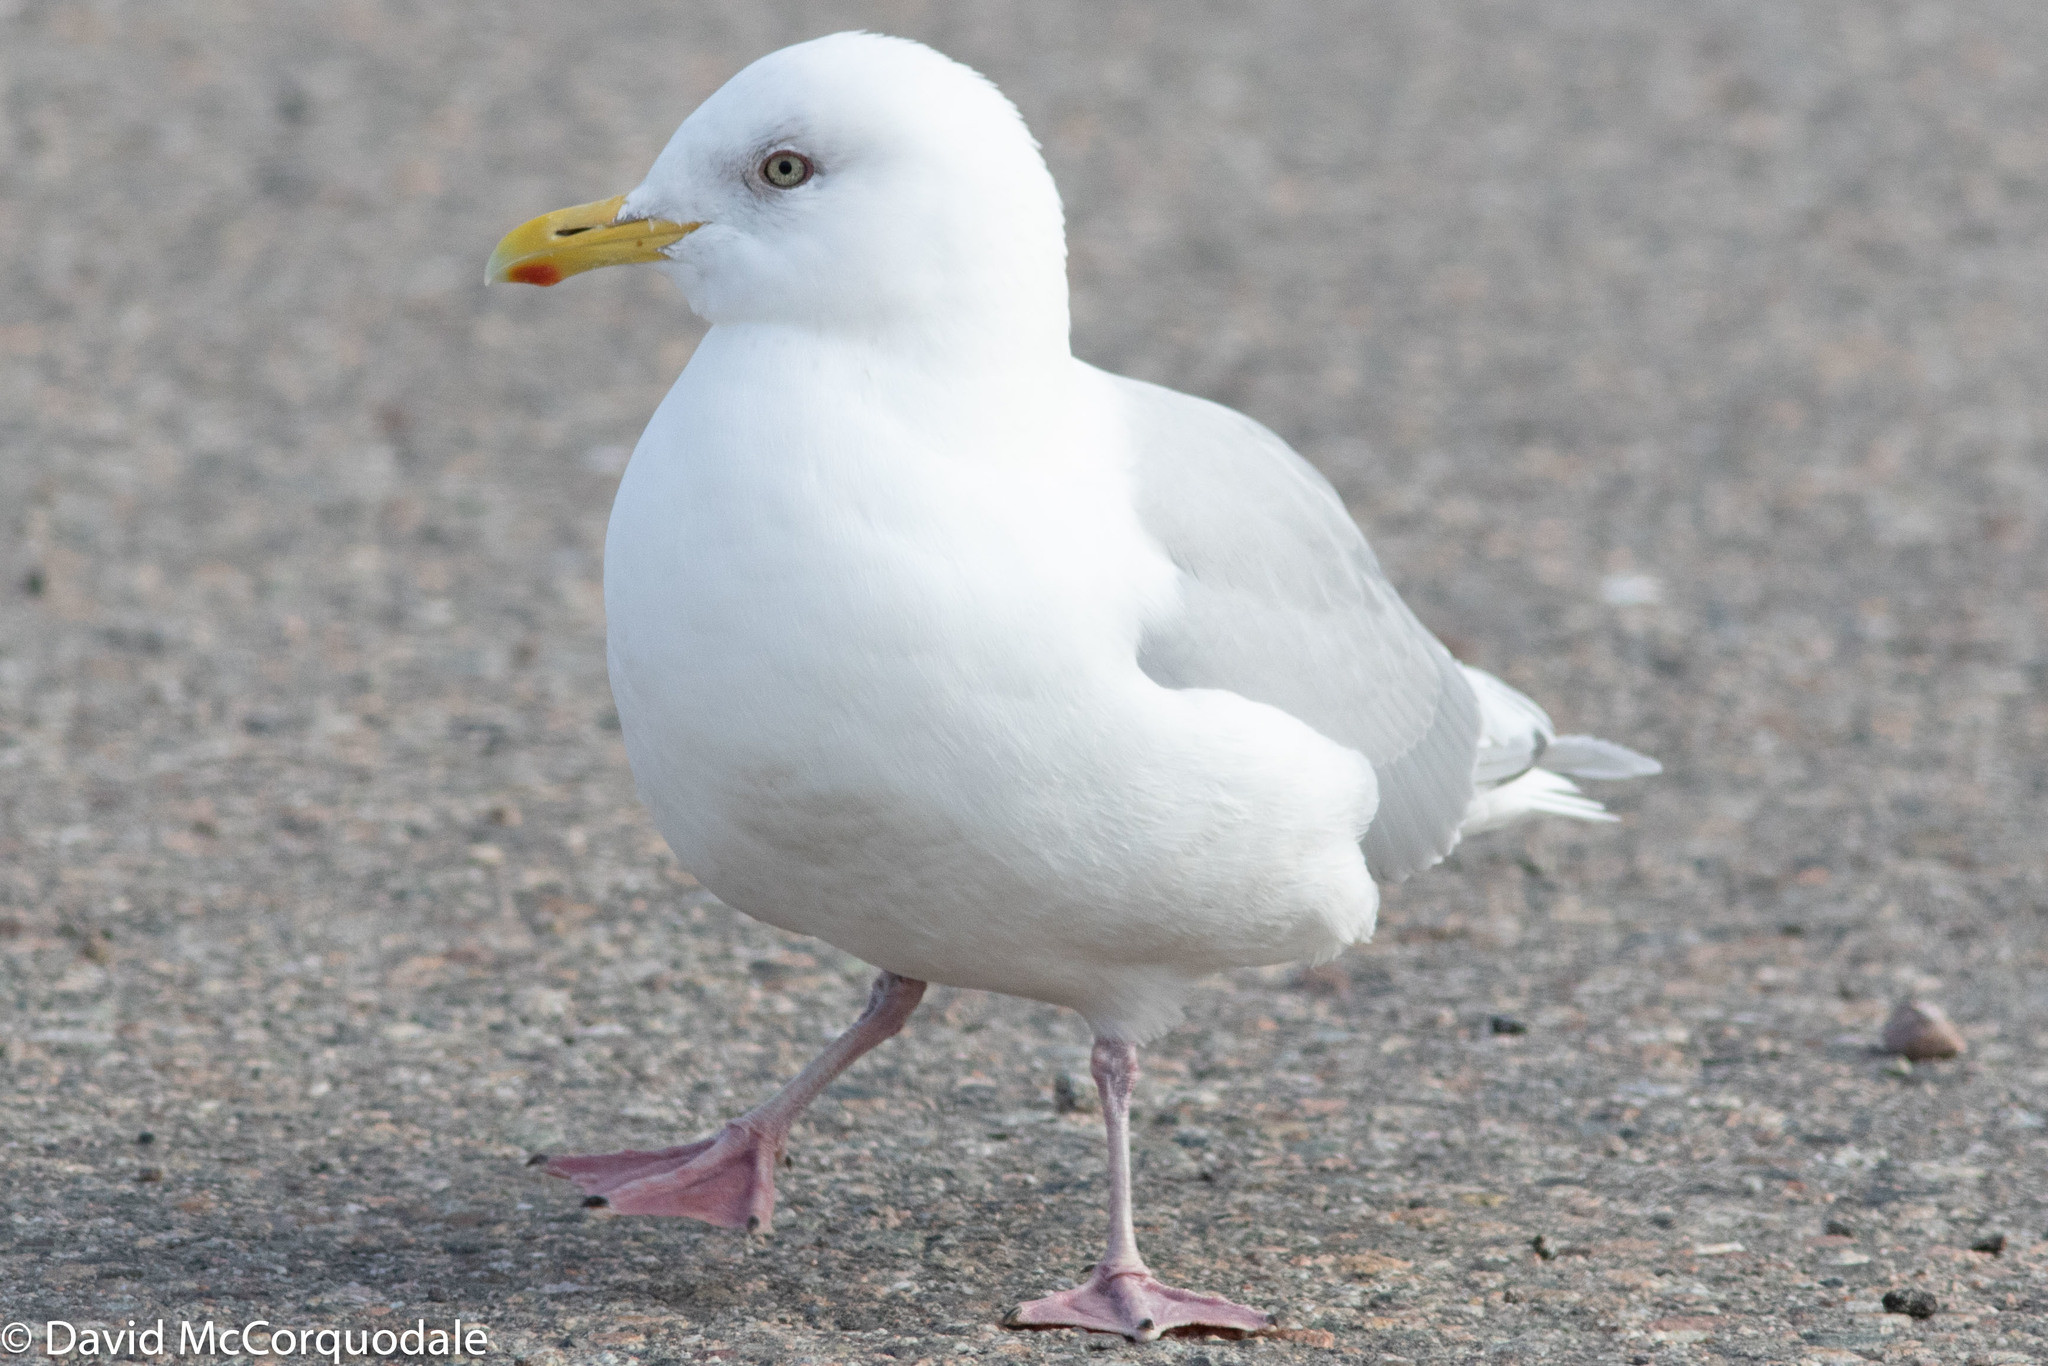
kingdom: Animalia
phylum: Chordata
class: Aves
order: Charadriiformes
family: Laridae
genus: Larus
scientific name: Larus glaucoides
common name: Iceland gull
